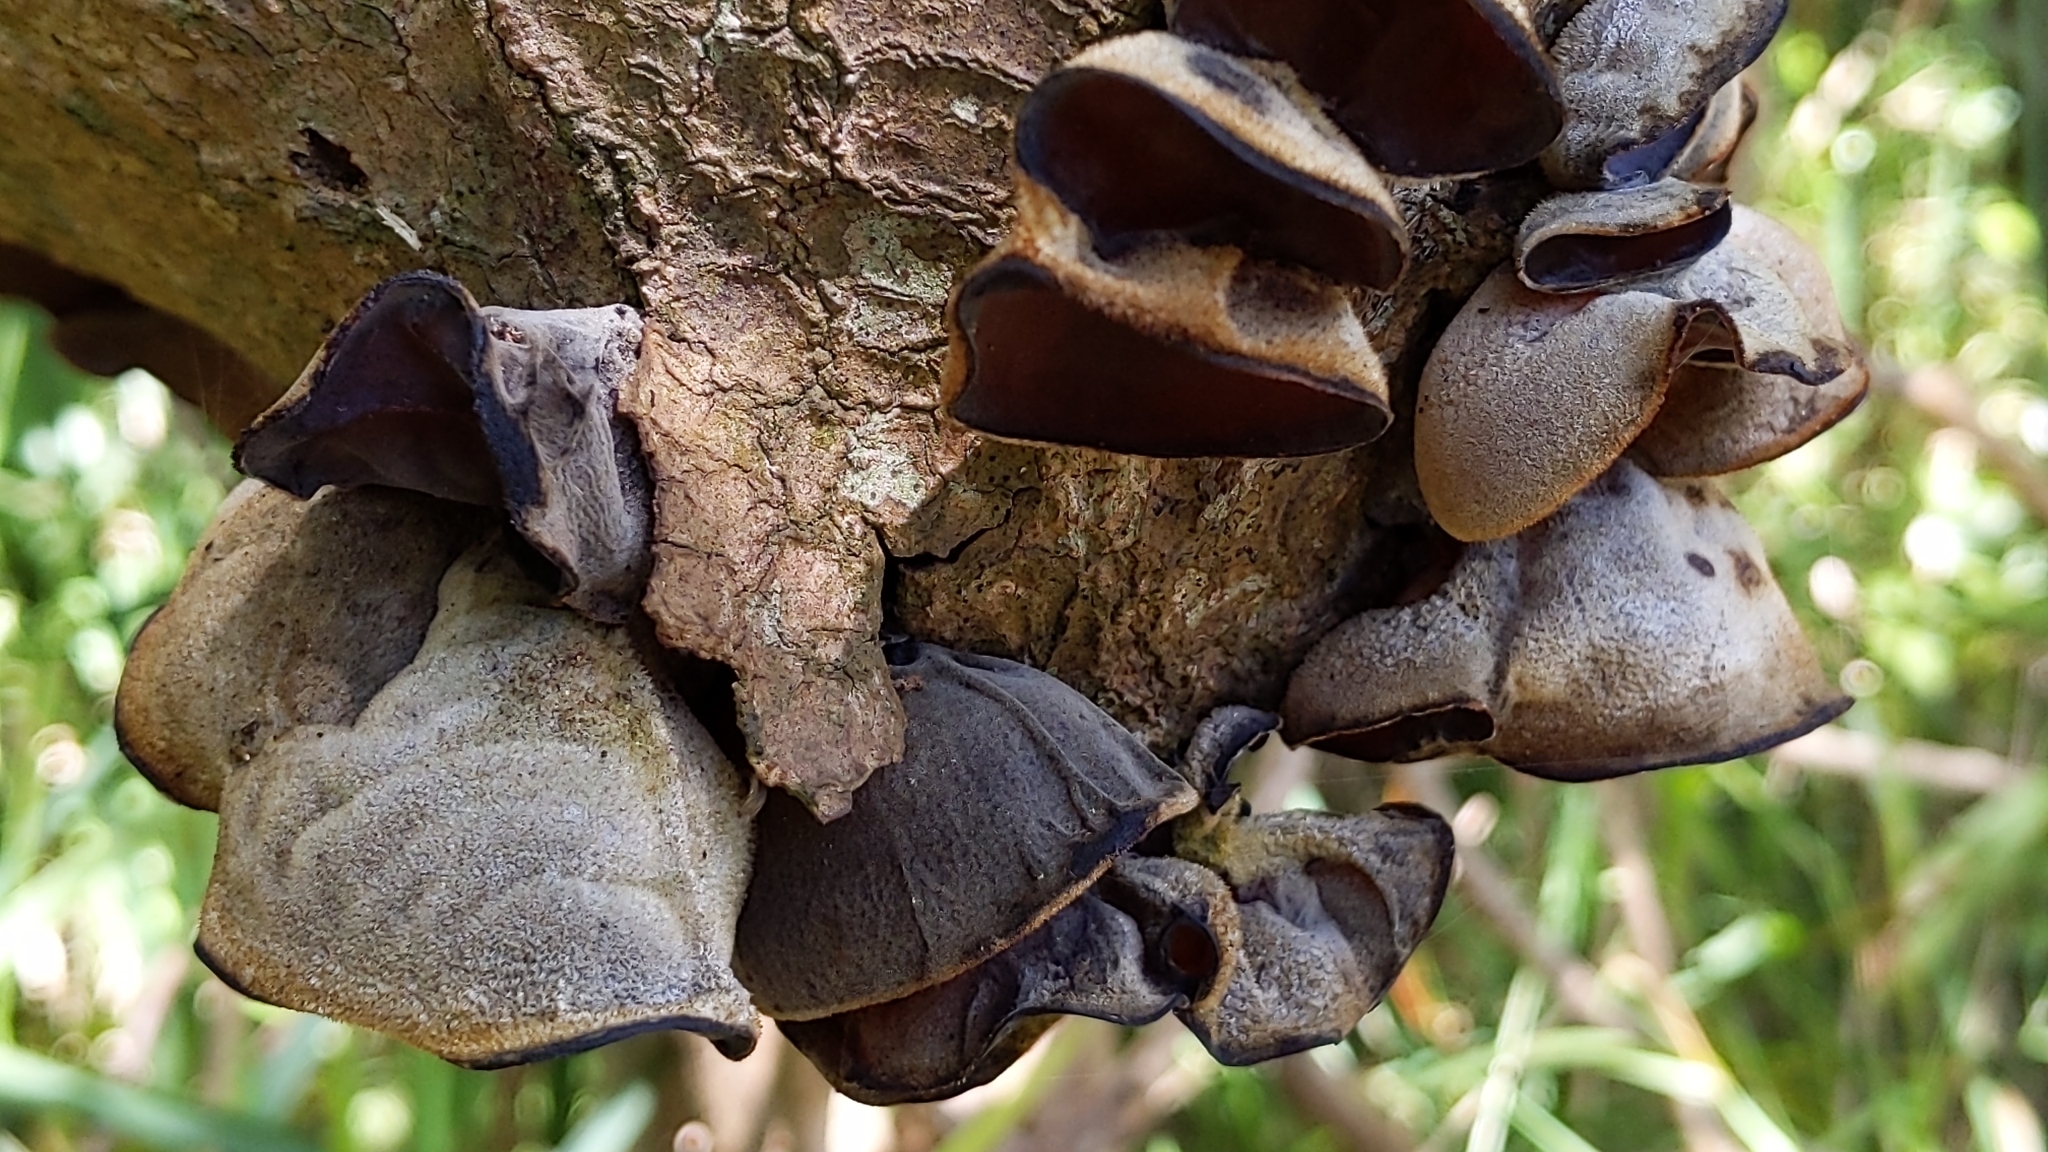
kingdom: Fungi
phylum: Basidiomycota
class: Agaricomycetes
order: Auriculariales
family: Auriculariaceae
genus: Auricularia
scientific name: Auricularia cornea
